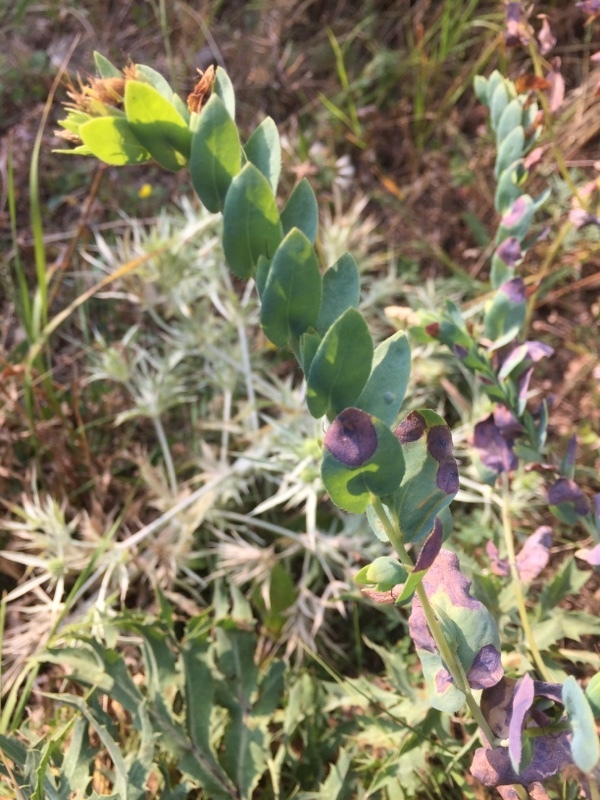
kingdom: Plantae
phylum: Tracheophyta
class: Magnoliopsida
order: Boraginales
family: Boraginaceae
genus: Cerinthe
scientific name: Cerinthe minor
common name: Lesser honeywort
